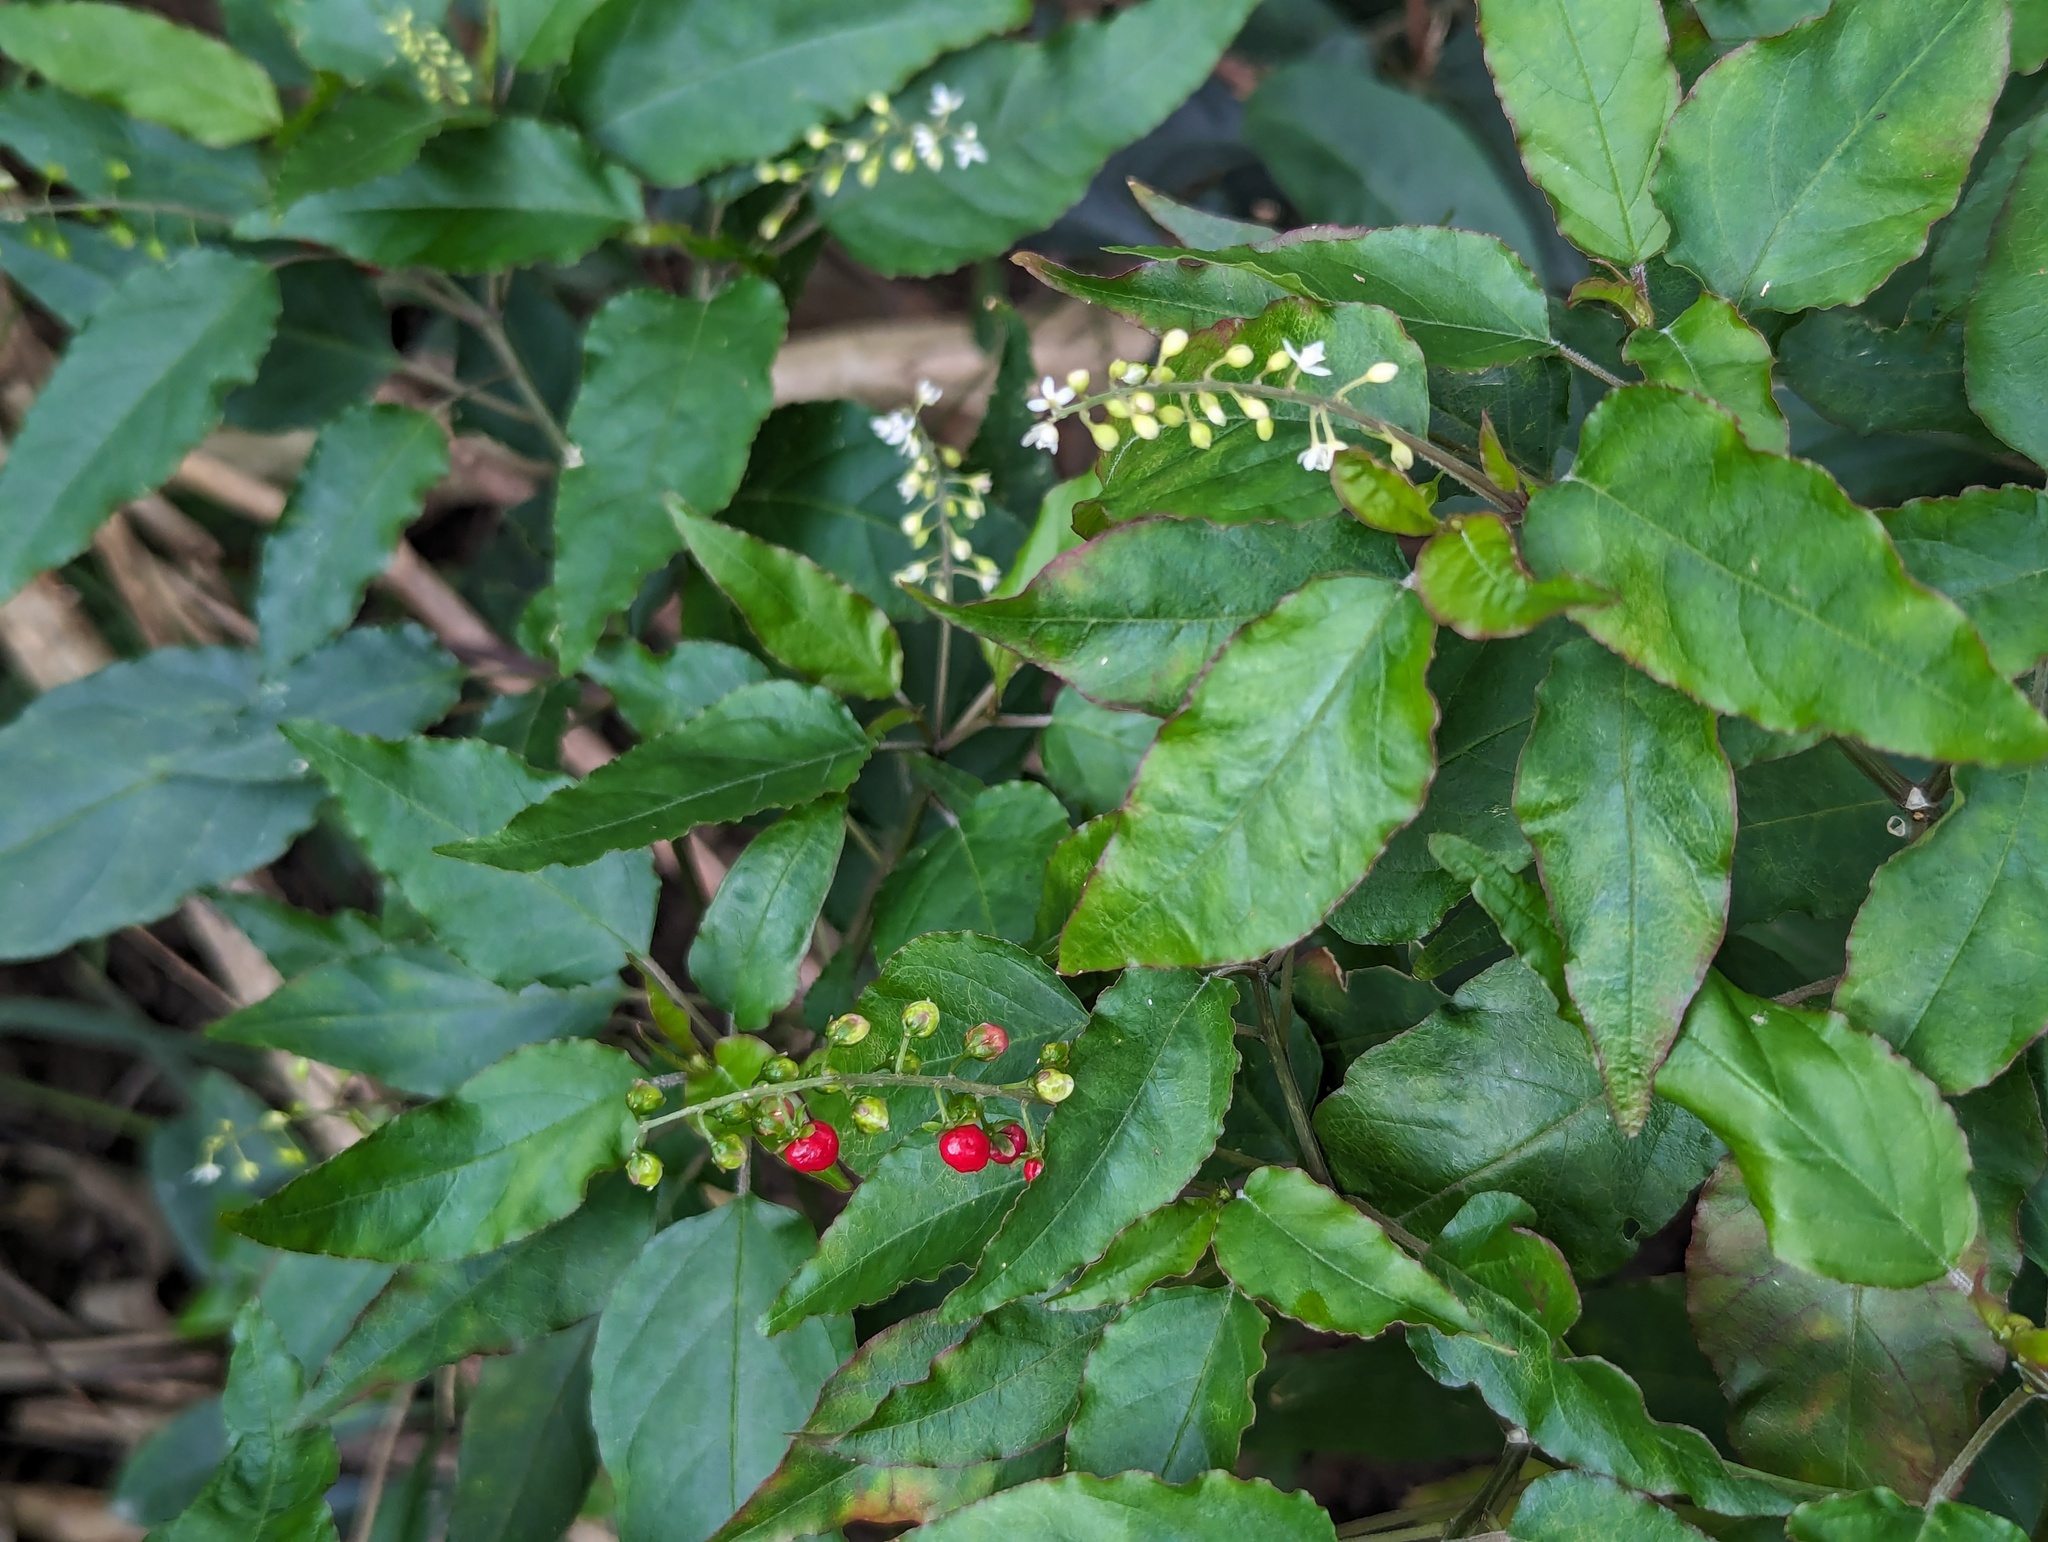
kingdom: Plantae
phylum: Tracheophyta
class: Magnoliopsida
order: Caryophyllales
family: Phytolaccaceae
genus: Rivina
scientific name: Rivina humilis
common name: Rougeplant
